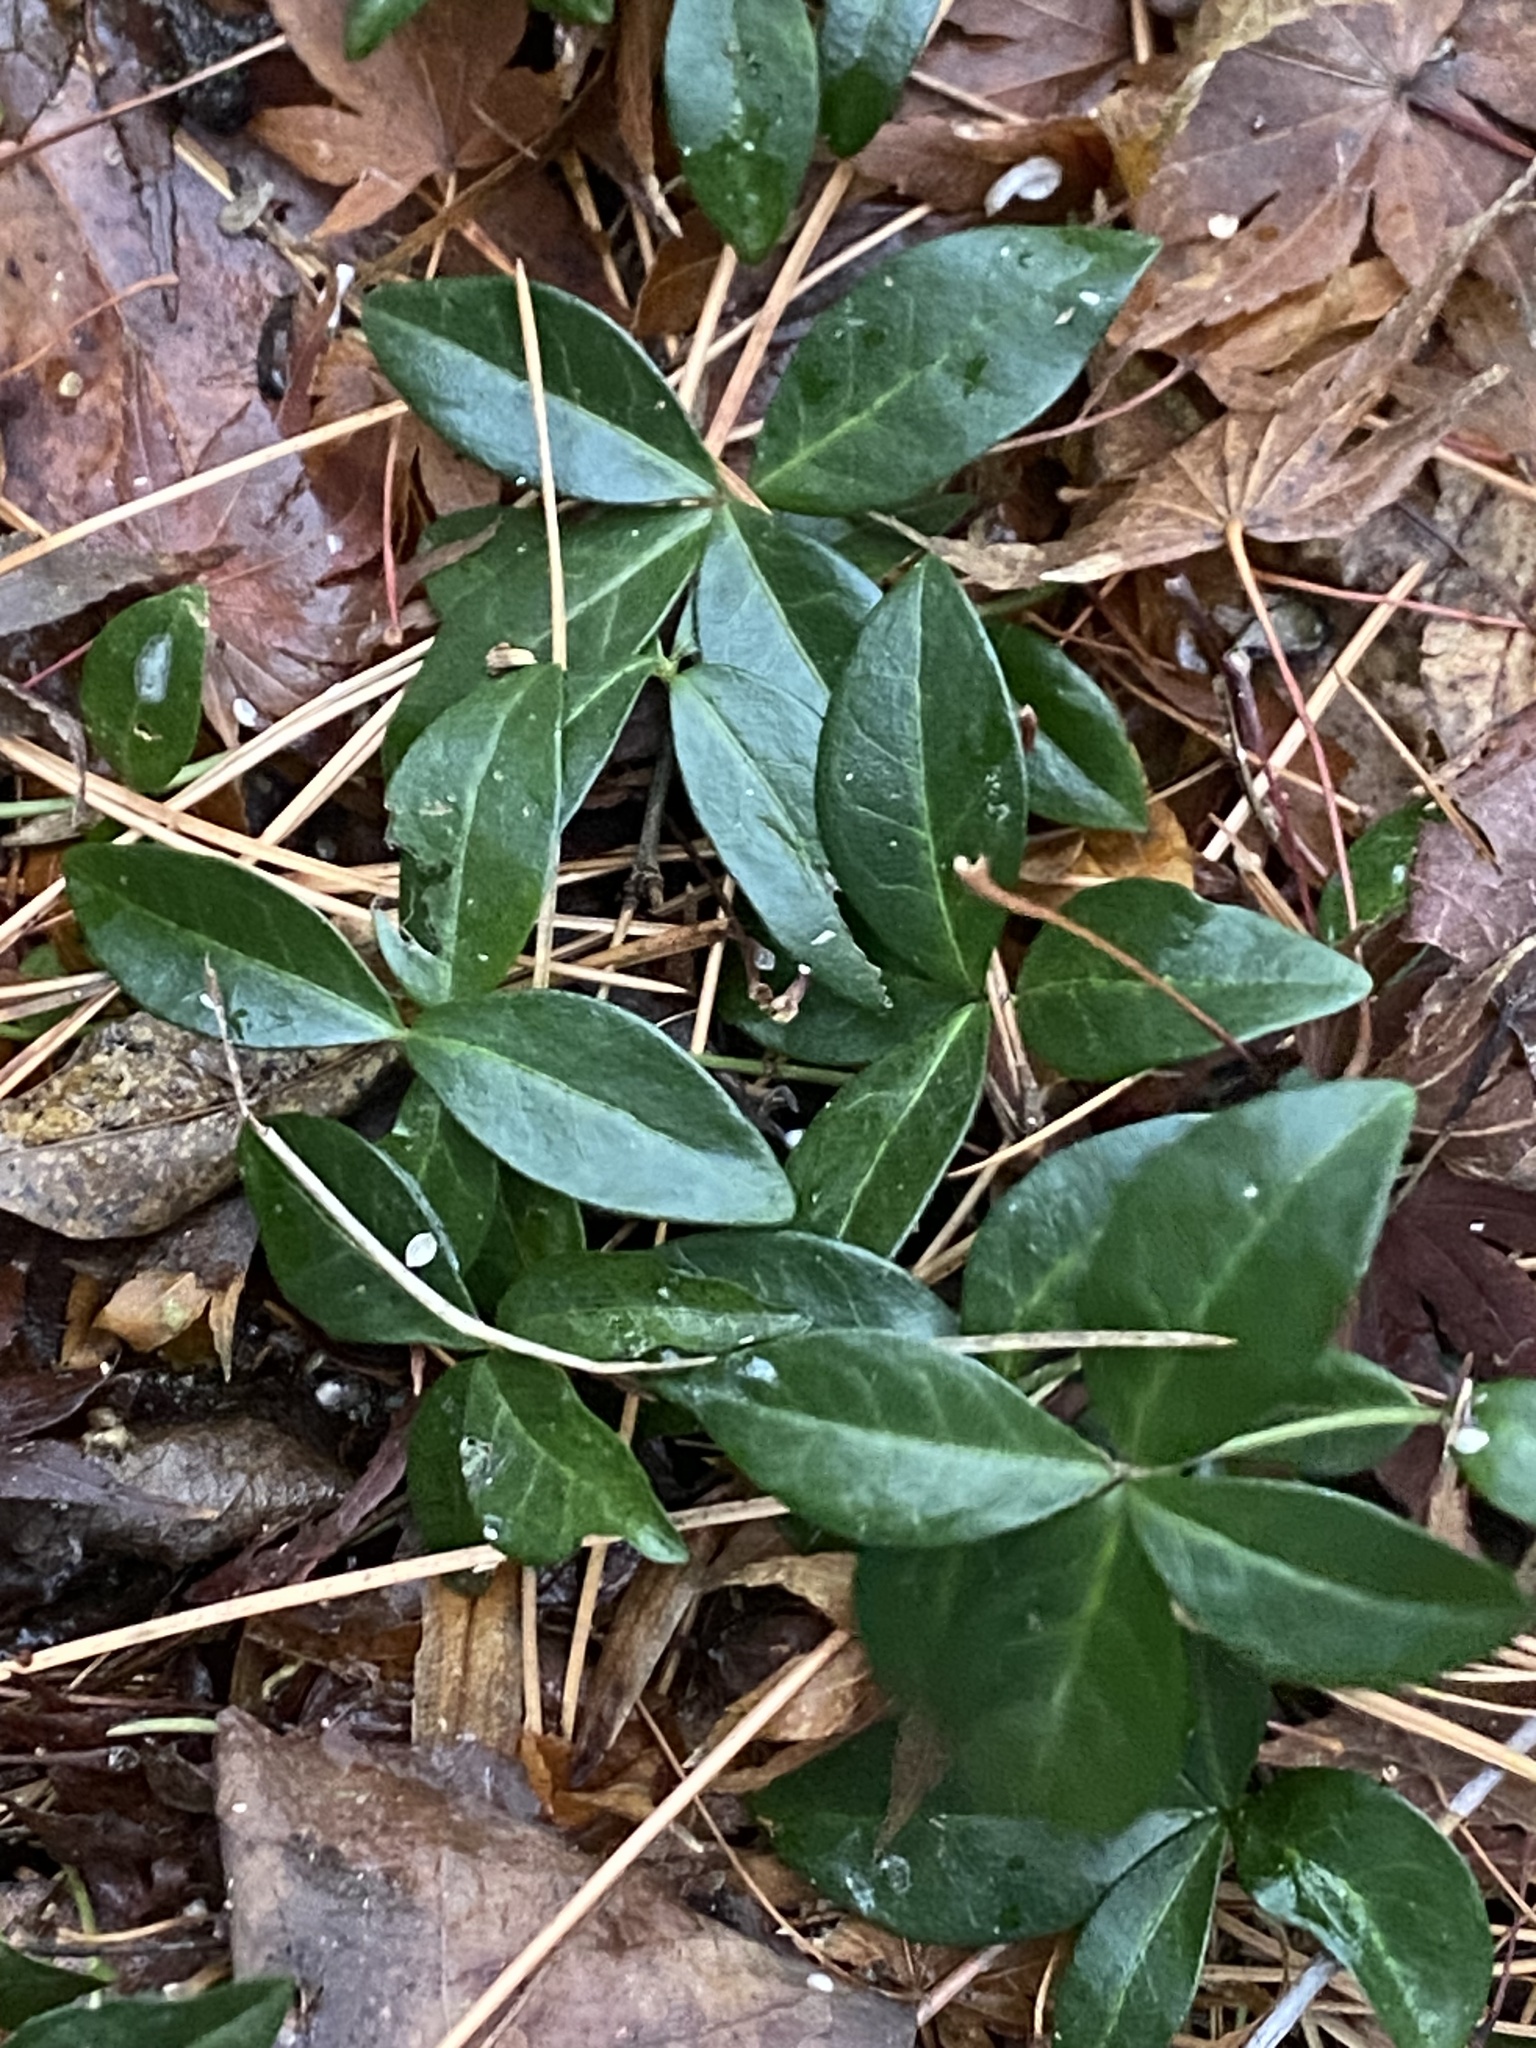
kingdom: Plantae
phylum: Tracheophyta
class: Magnoliopsida
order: Gentianales
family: Apocynaceae
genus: Vinca
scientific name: Vinca minor
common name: Lesser periwinkle
